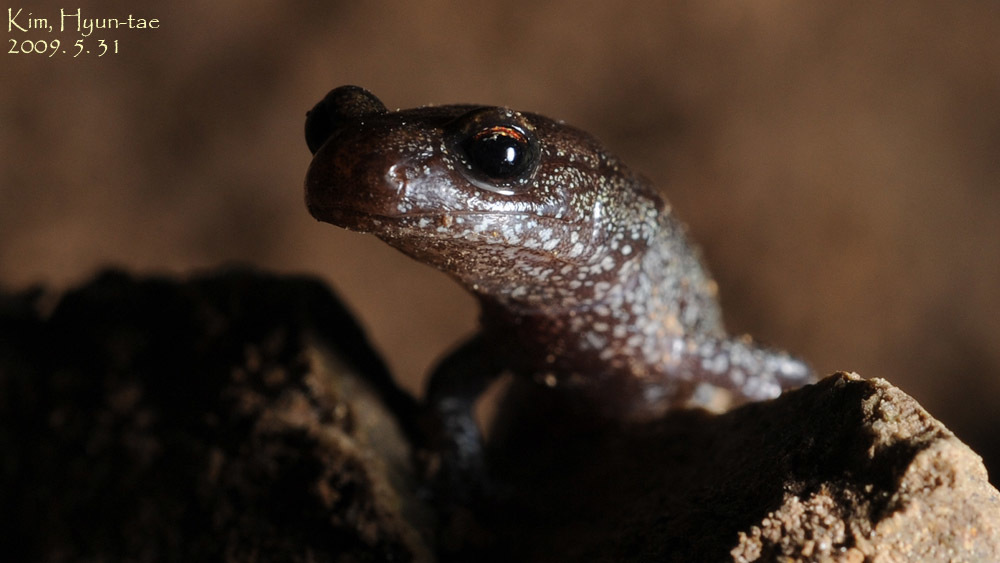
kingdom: Animalia
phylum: Chordata
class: Amphibia
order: Caudata
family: Plethodontidae
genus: Karsenia
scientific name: Karsenia koreana
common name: Korean crevice salamander
